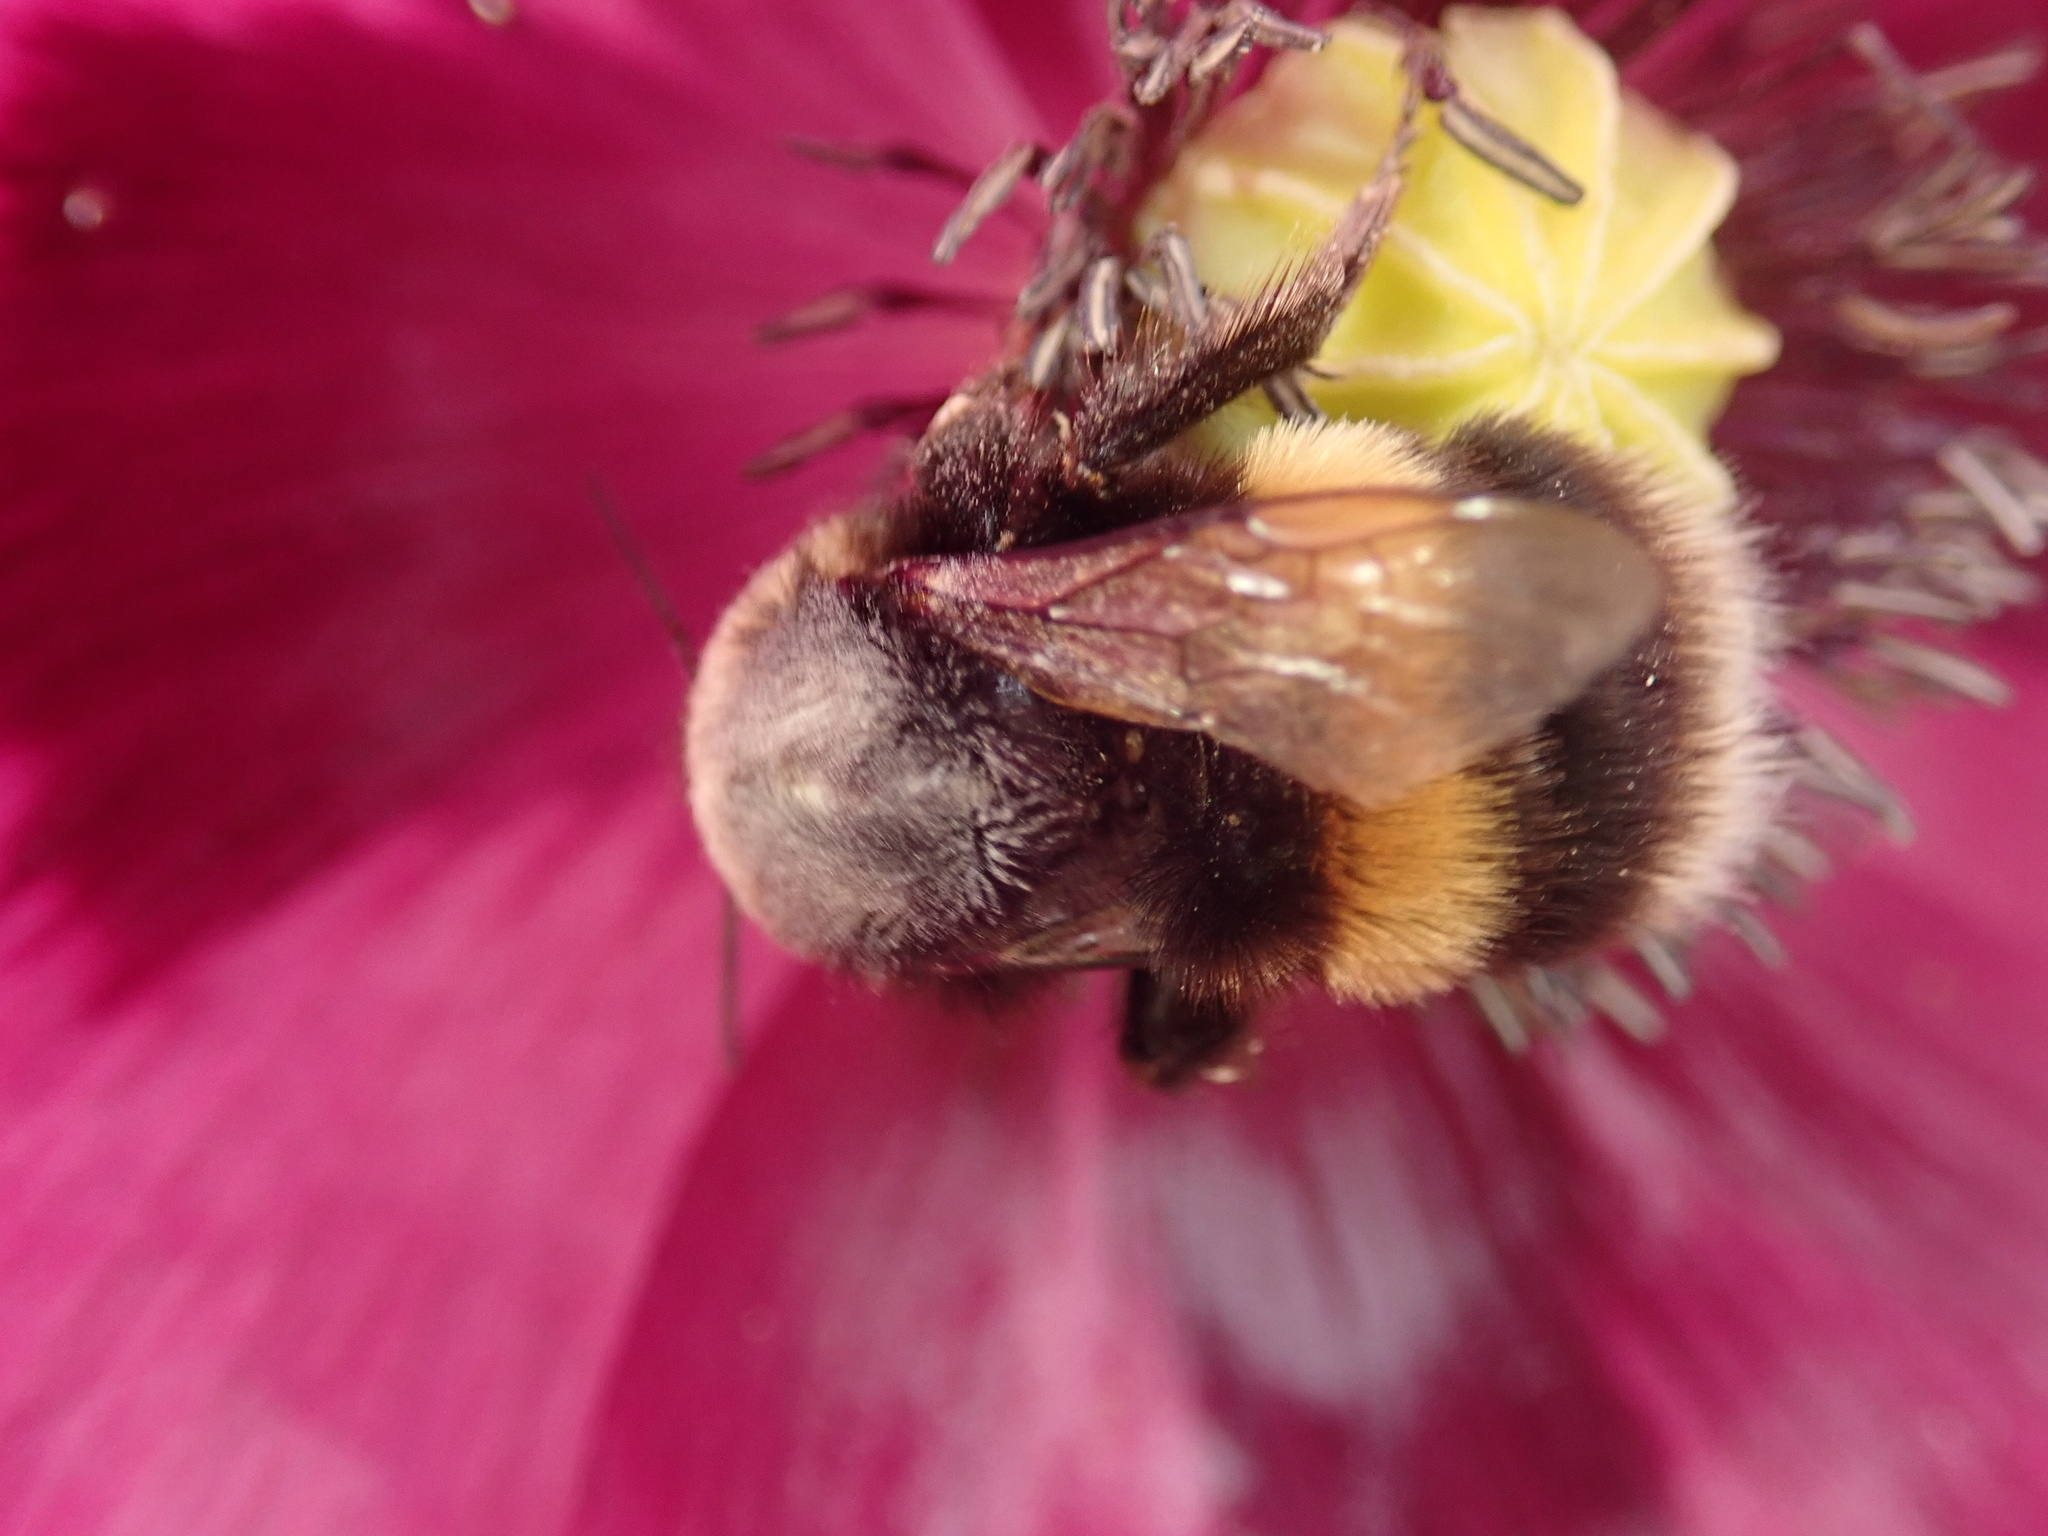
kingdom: Animalia
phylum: Arthropoda
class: Insecta
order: Hymenoptera
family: Apidae
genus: Bombus
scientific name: Bombus terrestris
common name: Buff-tailed bumblebee
